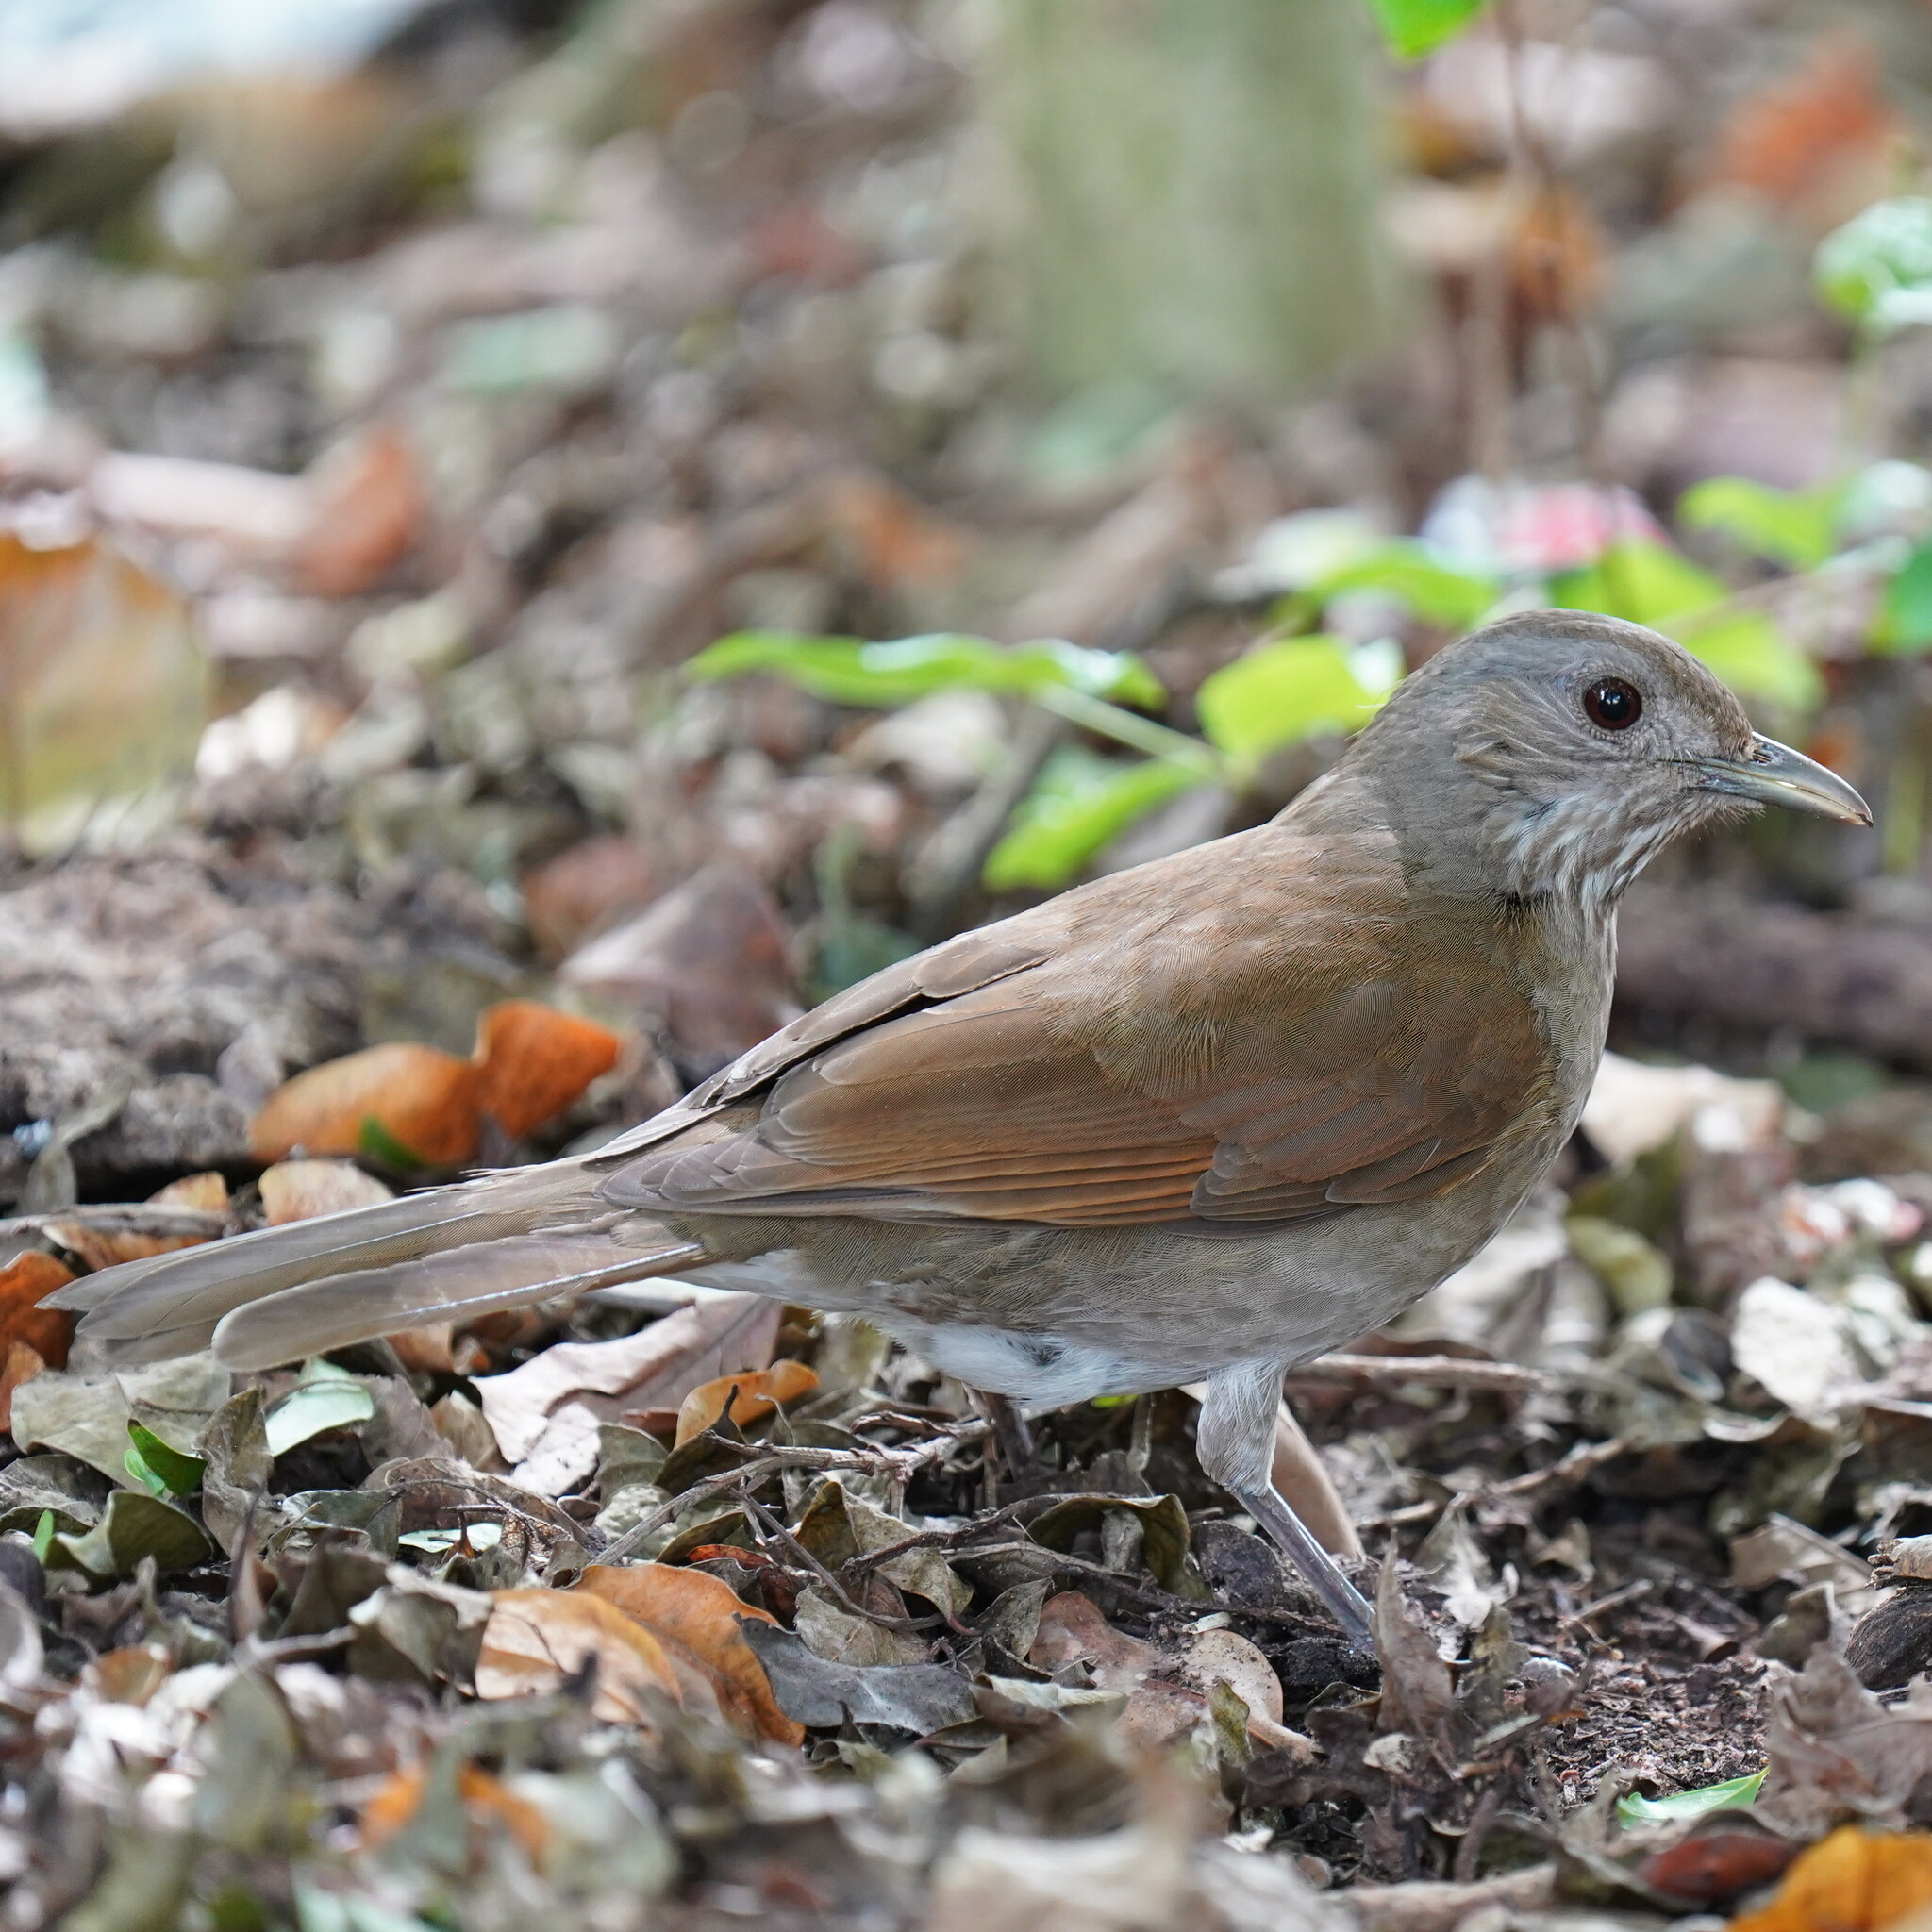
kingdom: Animalia
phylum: Chordata
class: Aves
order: Passeriformes
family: Turdidae
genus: Turdus
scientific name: Turdus leucomelas
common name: Pale-breasted thrush
